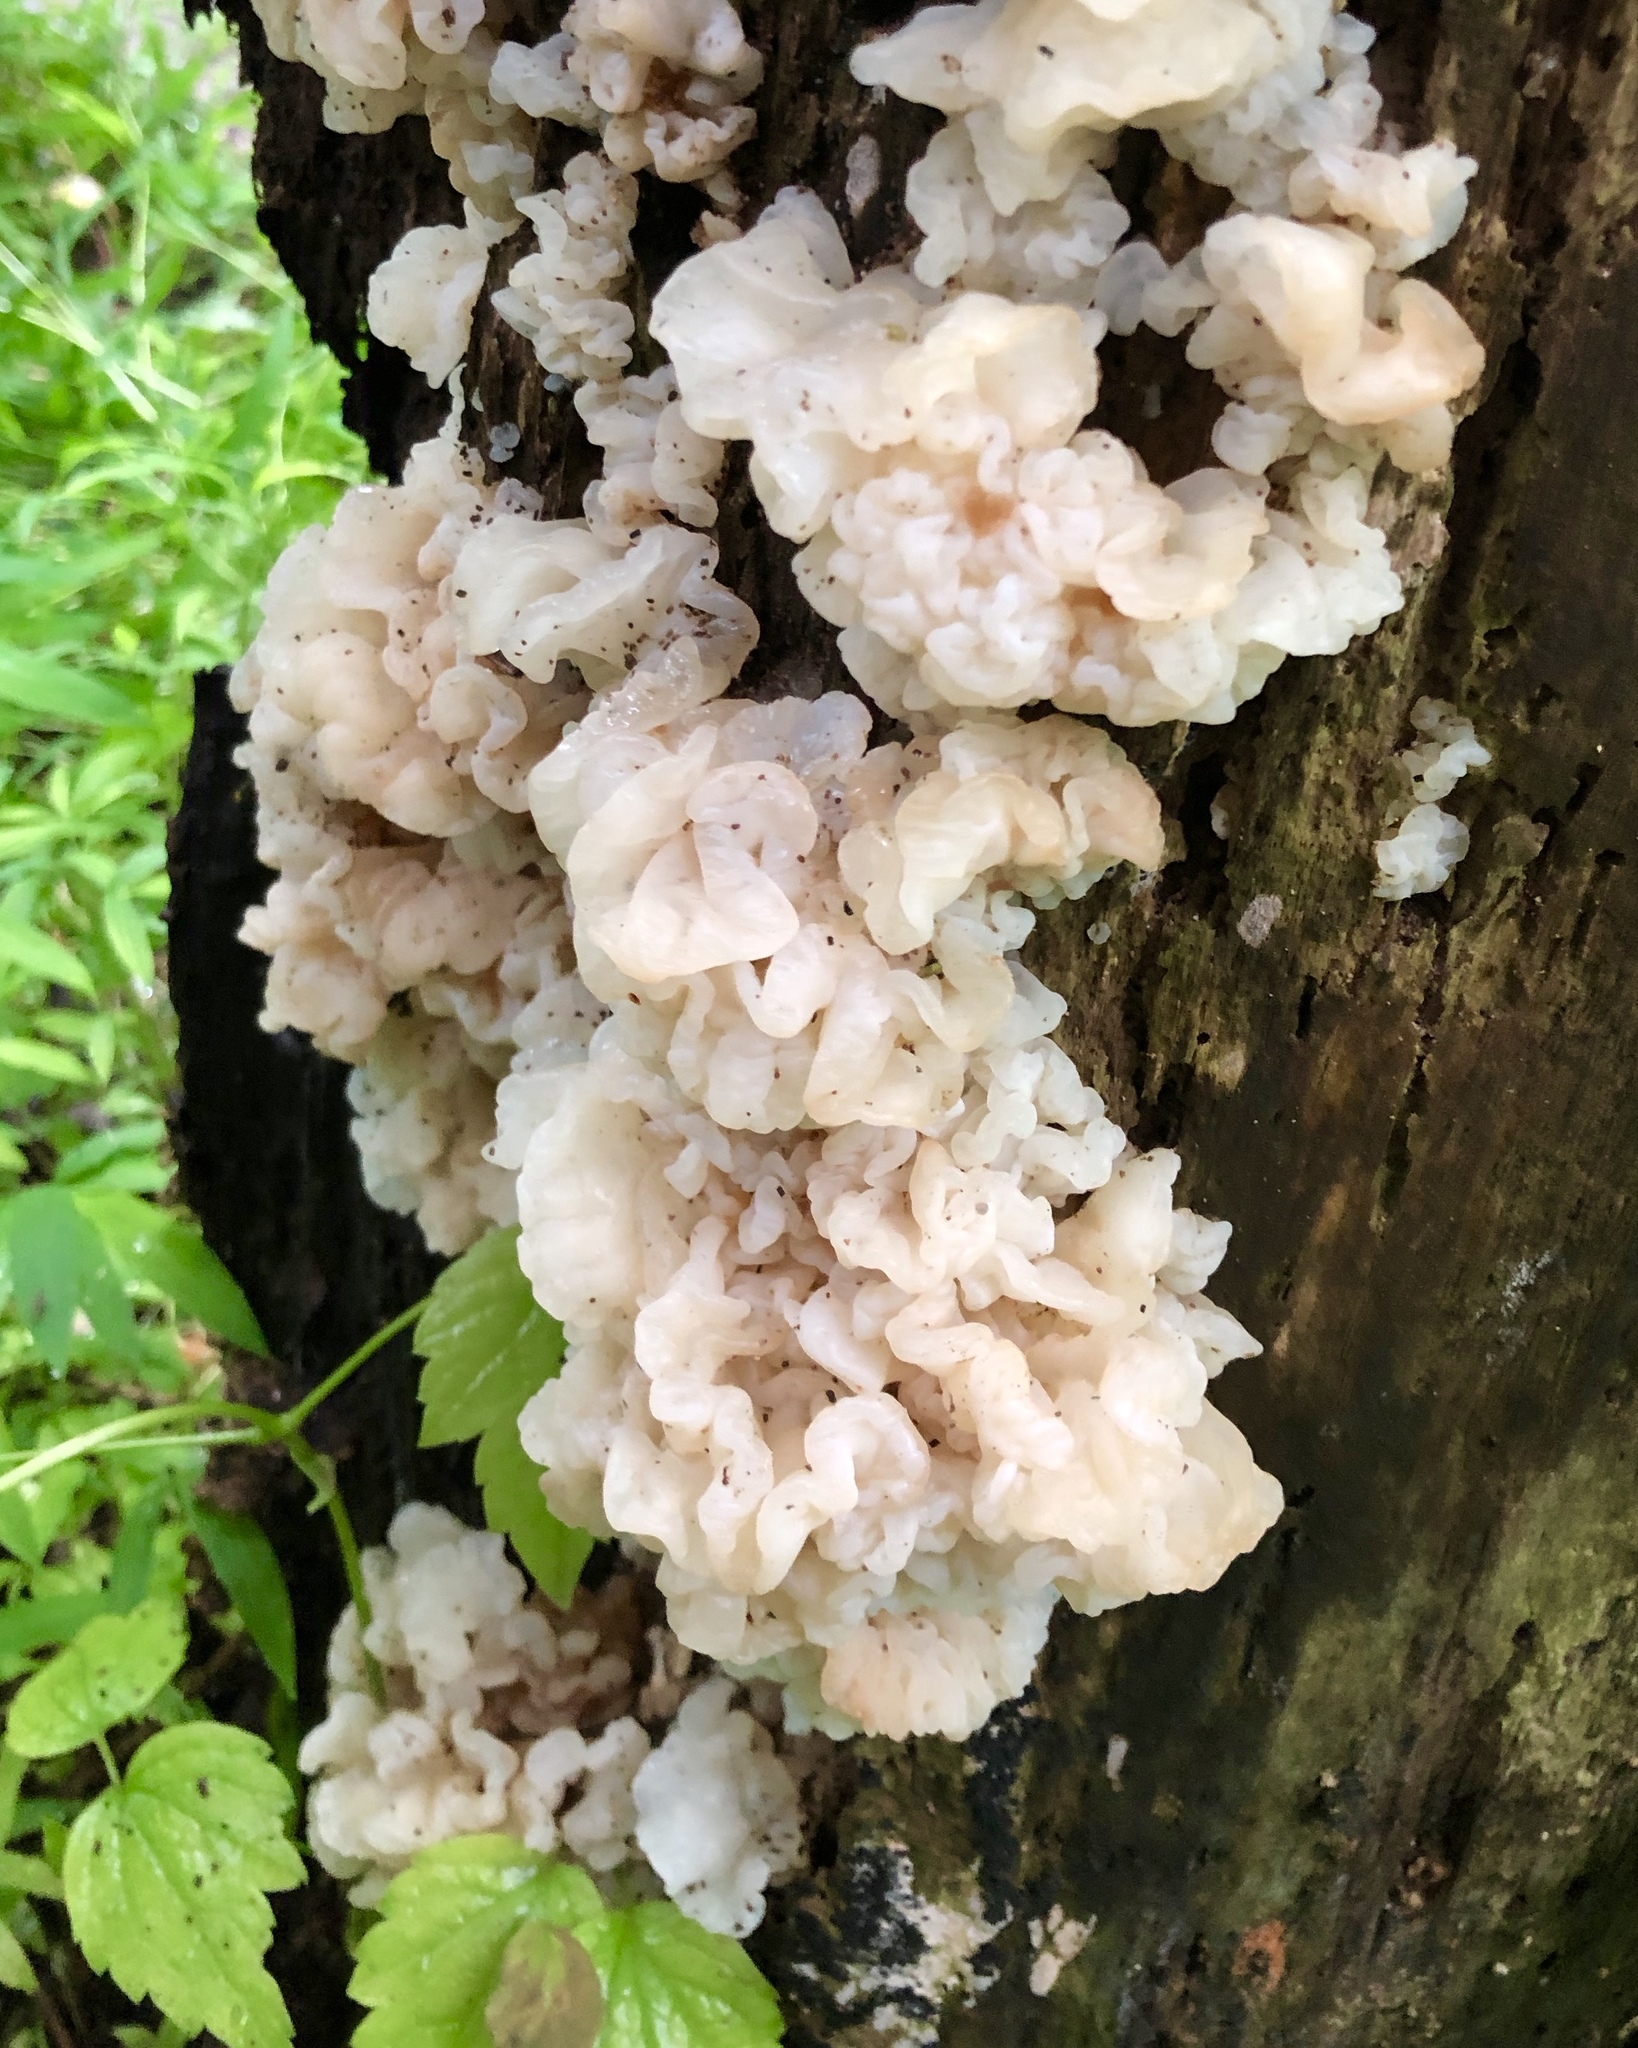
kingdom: Fungi
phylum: Basidiomycota
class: Agaricomycetes
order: Auriculariales
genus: Ductifera
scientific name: Ductifera pululahuana
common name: White jelly fungus
